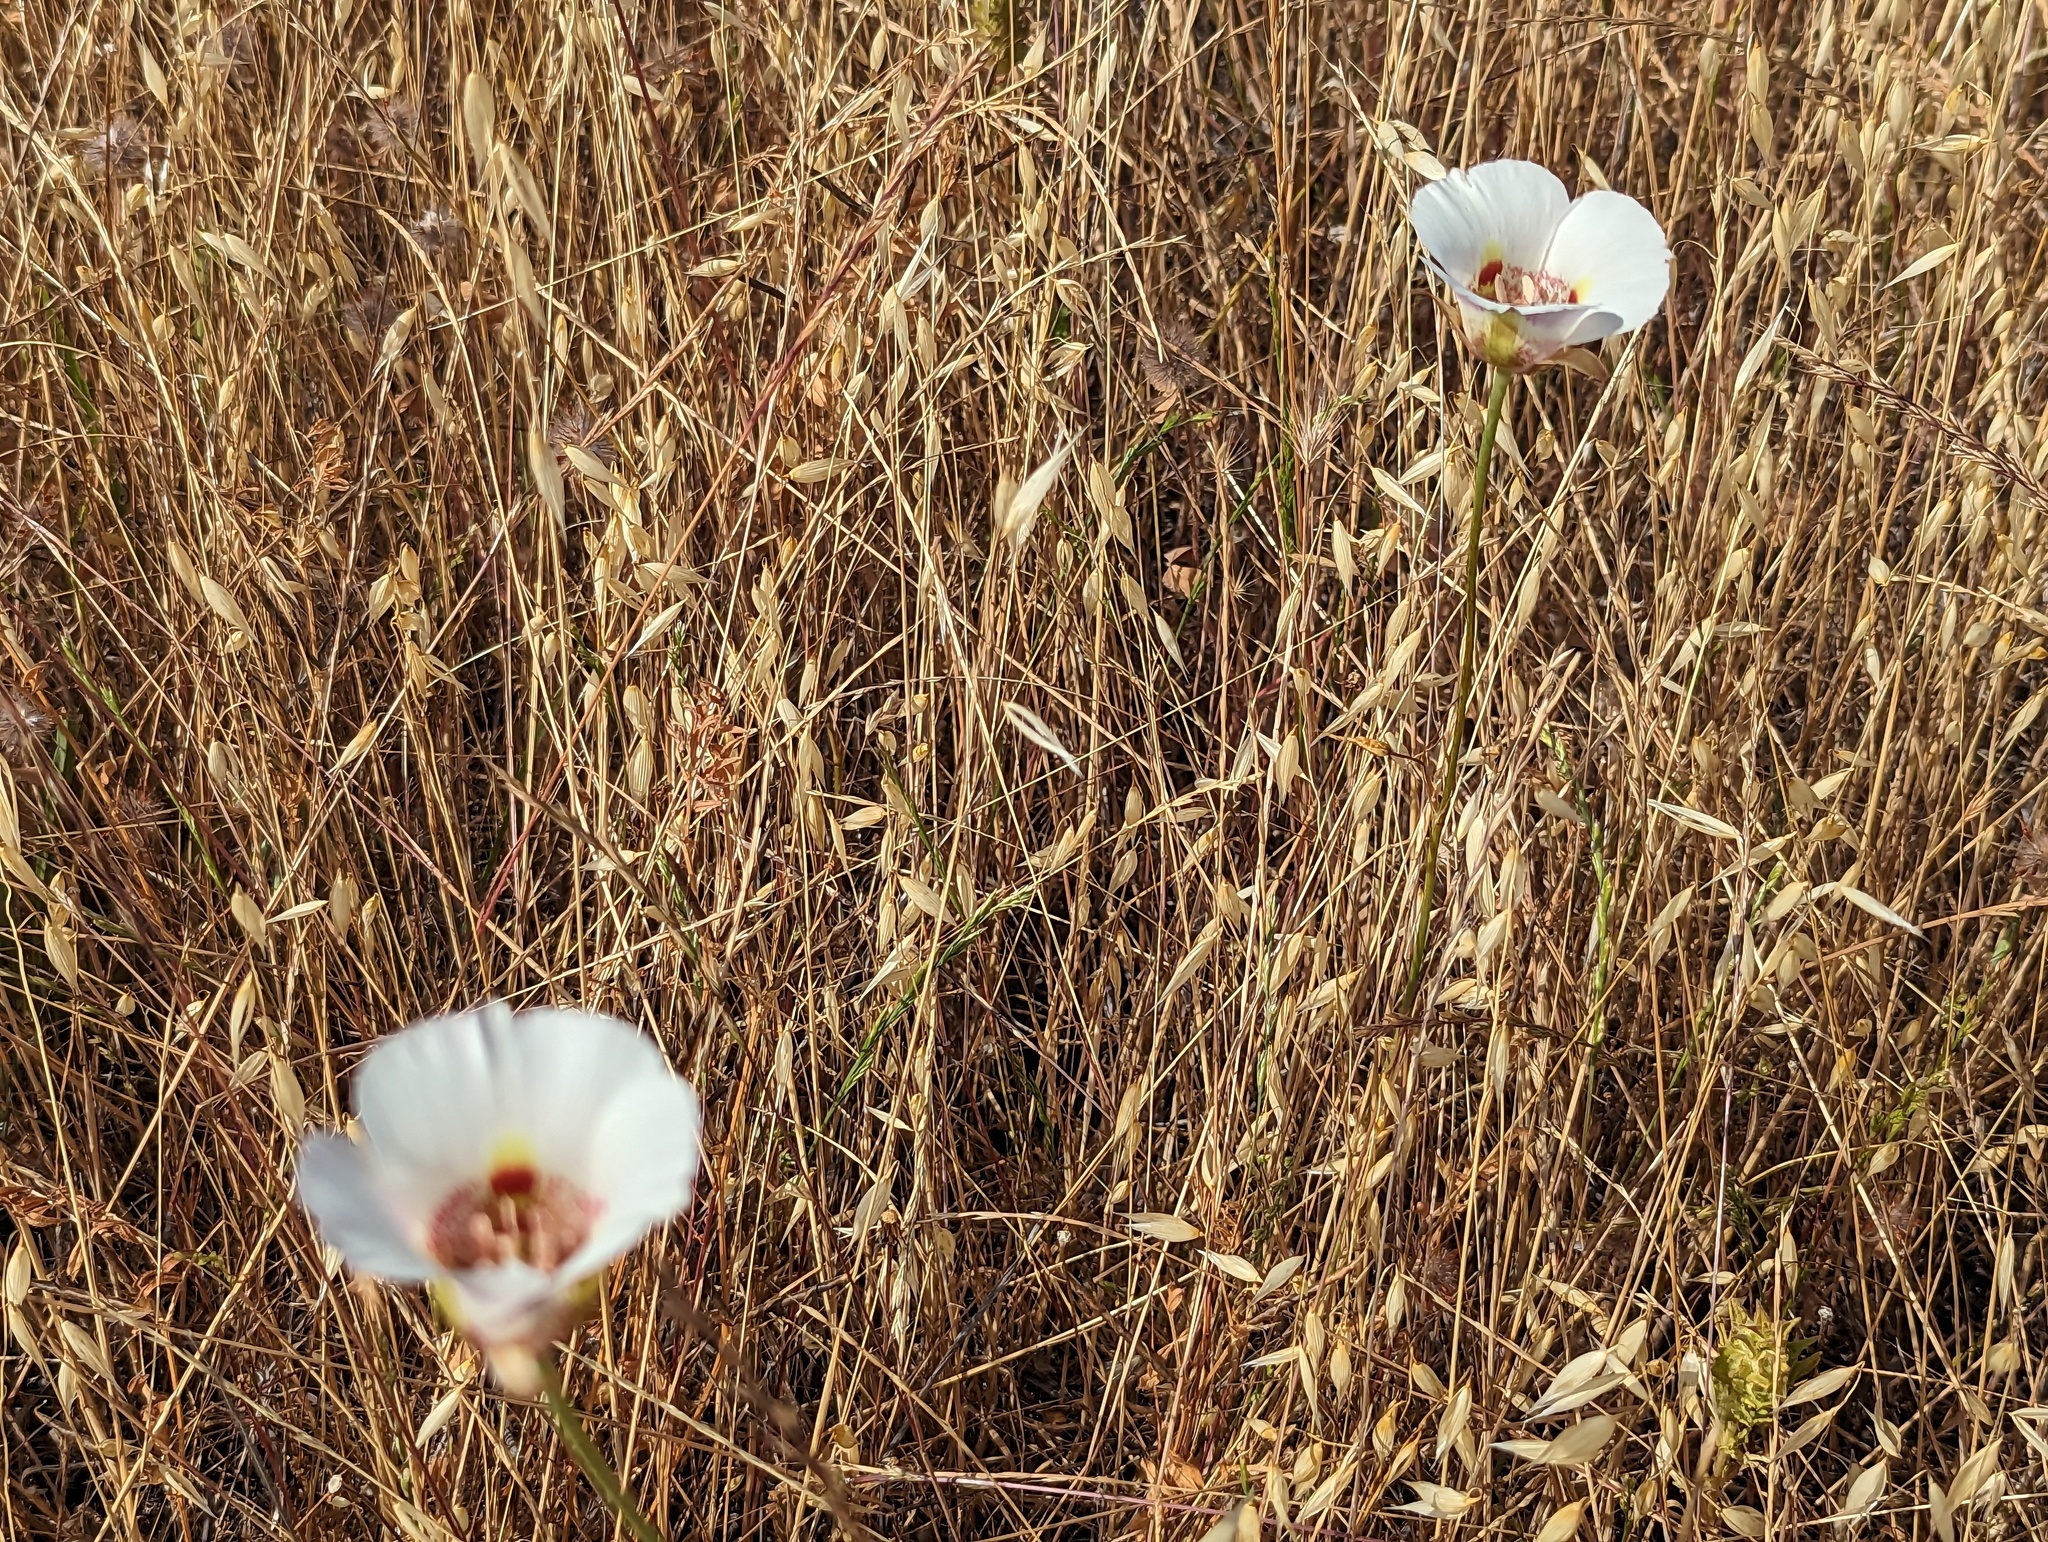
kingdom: Plantae
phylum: Tracheophyta
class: Liliopsida
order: Liliales
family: Liliaceae
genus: Calochortus
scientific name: Calochortus argillosus
